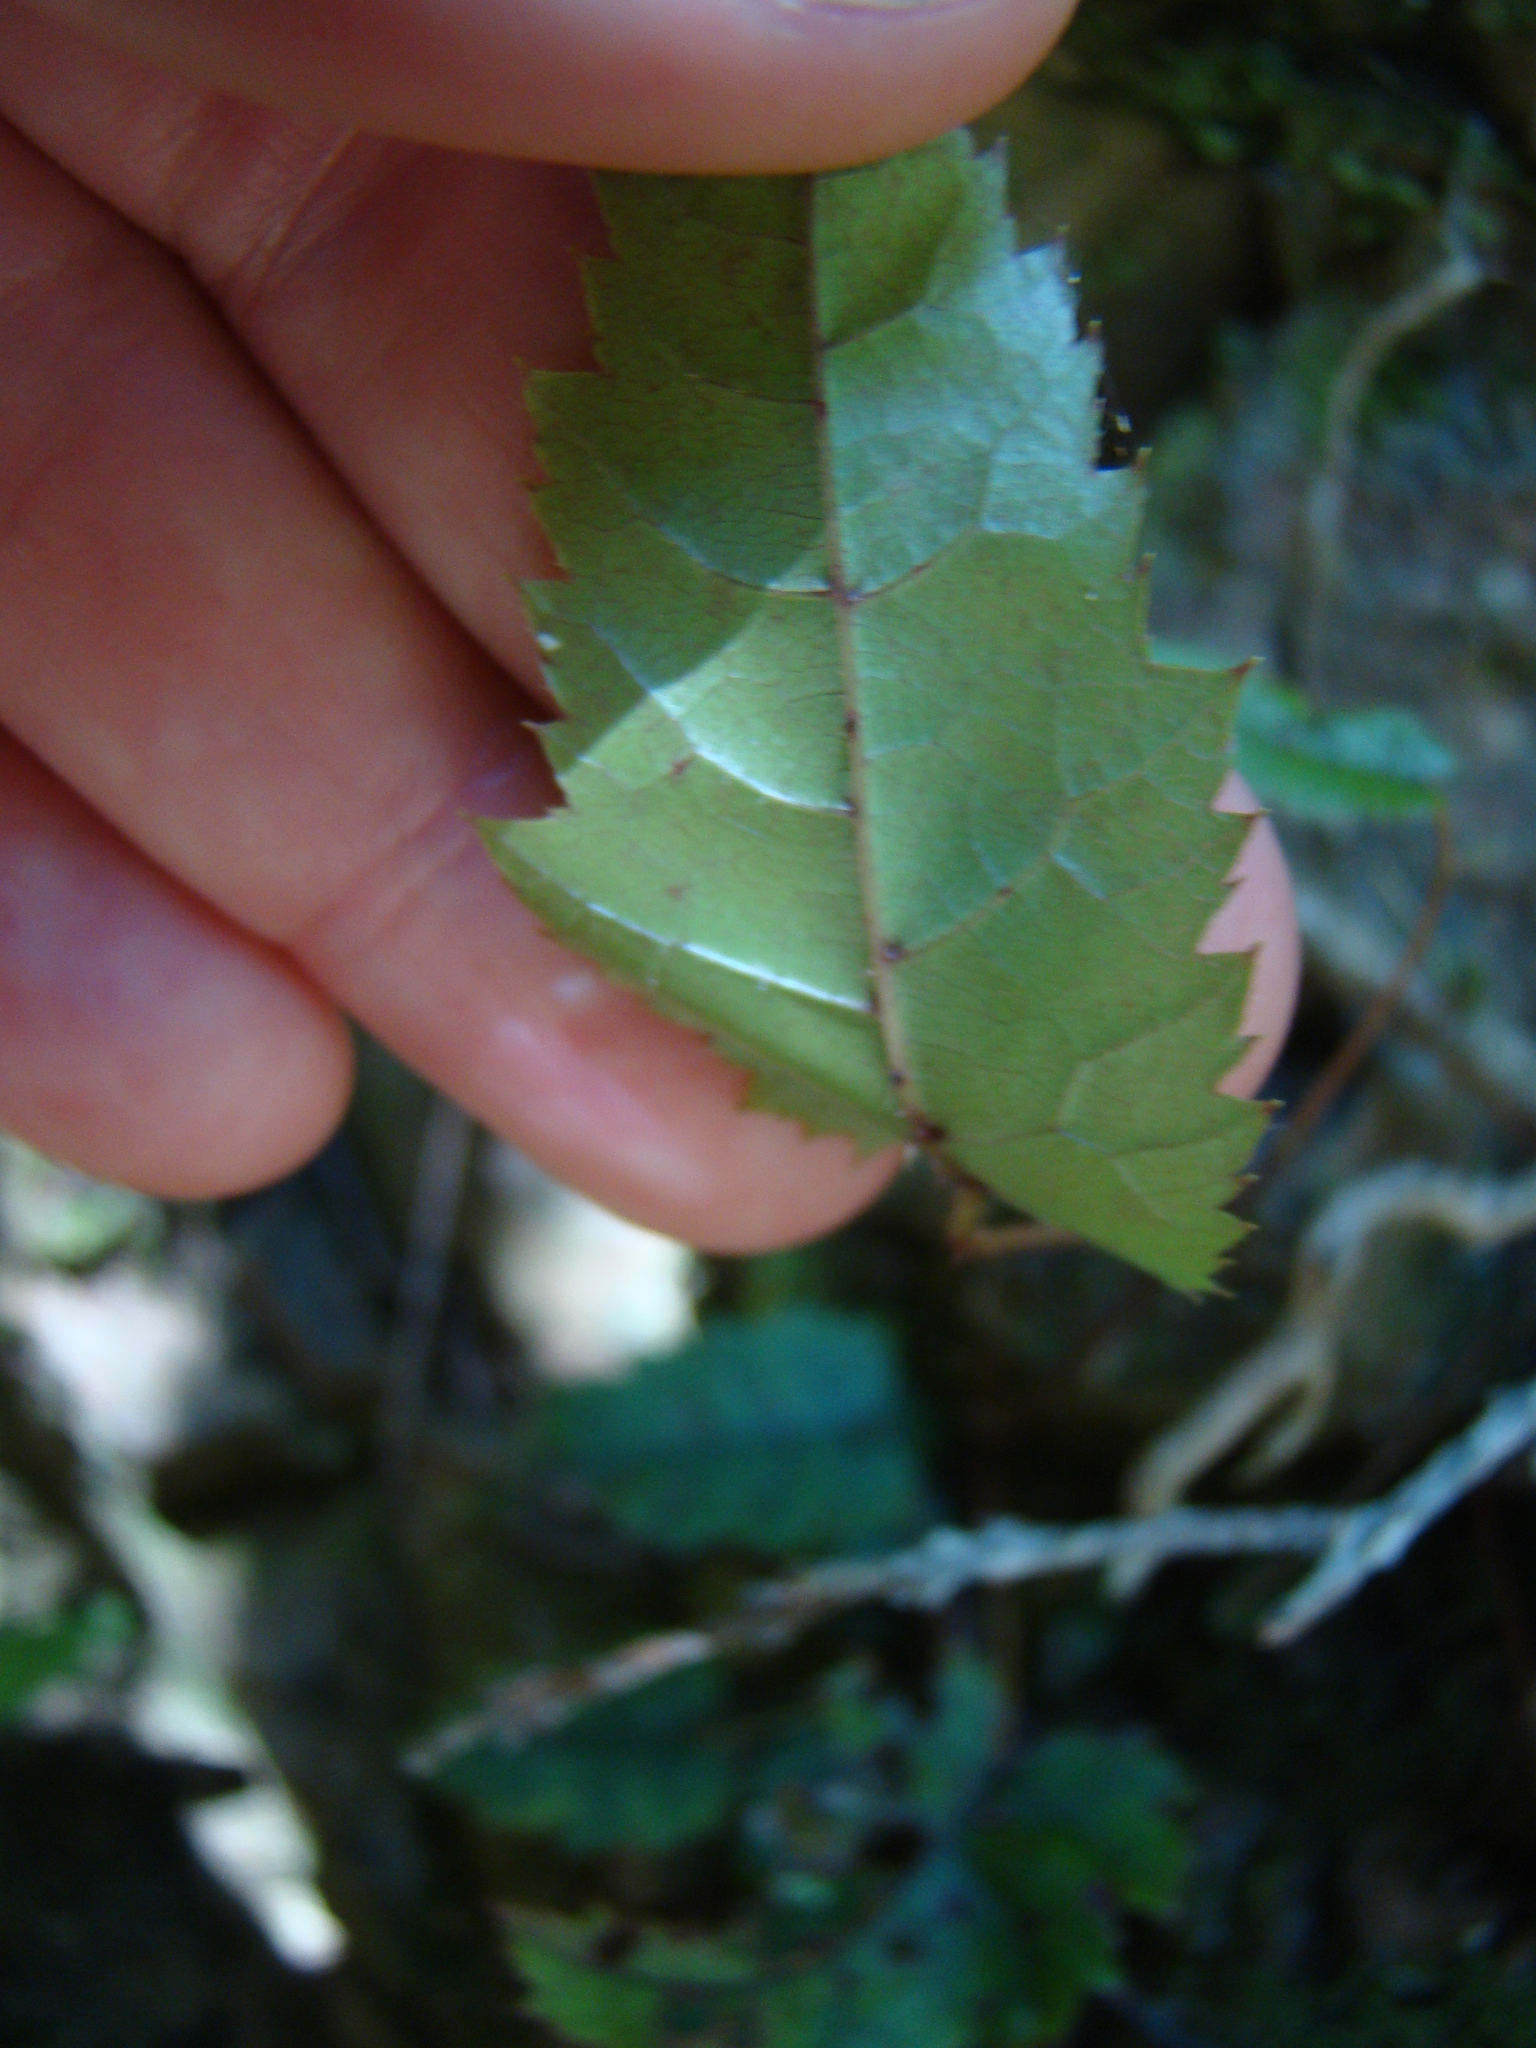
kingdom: Plantae
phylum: Tracheophyta
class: Magnoliopsida
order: Rosales
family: Rosaceae
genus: Rubus
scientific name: Rubus cissoides
